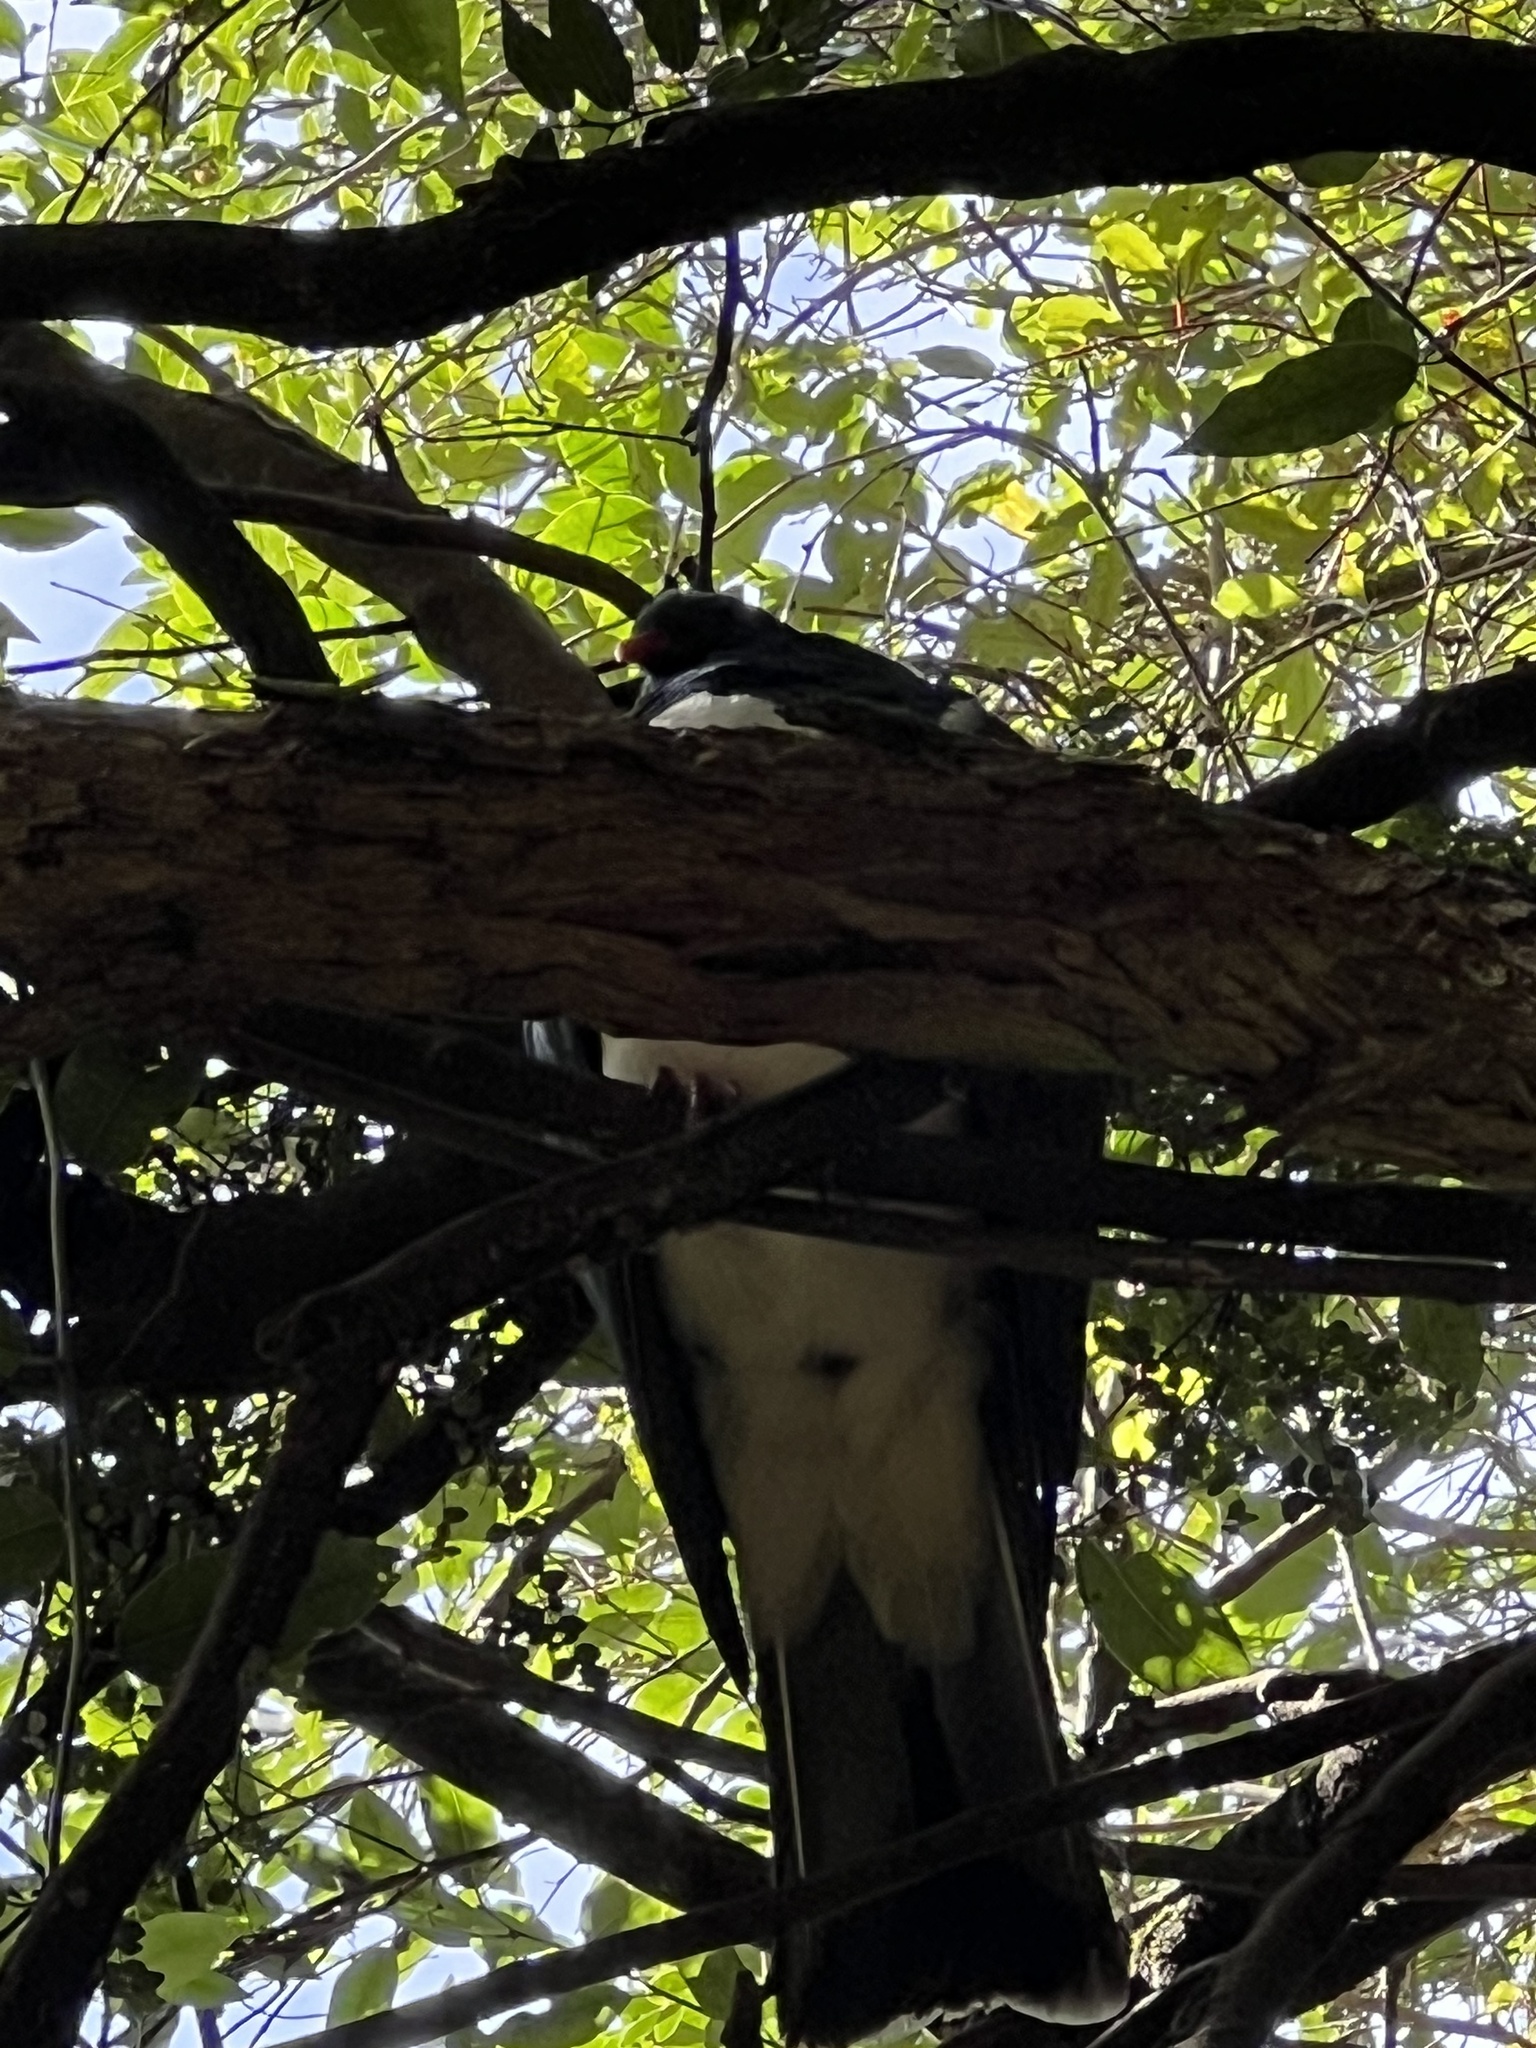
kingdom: Animalia
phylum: Chordata
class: Aves
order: Columbiformes
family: Columbidae
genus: Hemiphaga
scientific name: Hemiphaga novaeseelandiae
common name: New zealand pigeon
